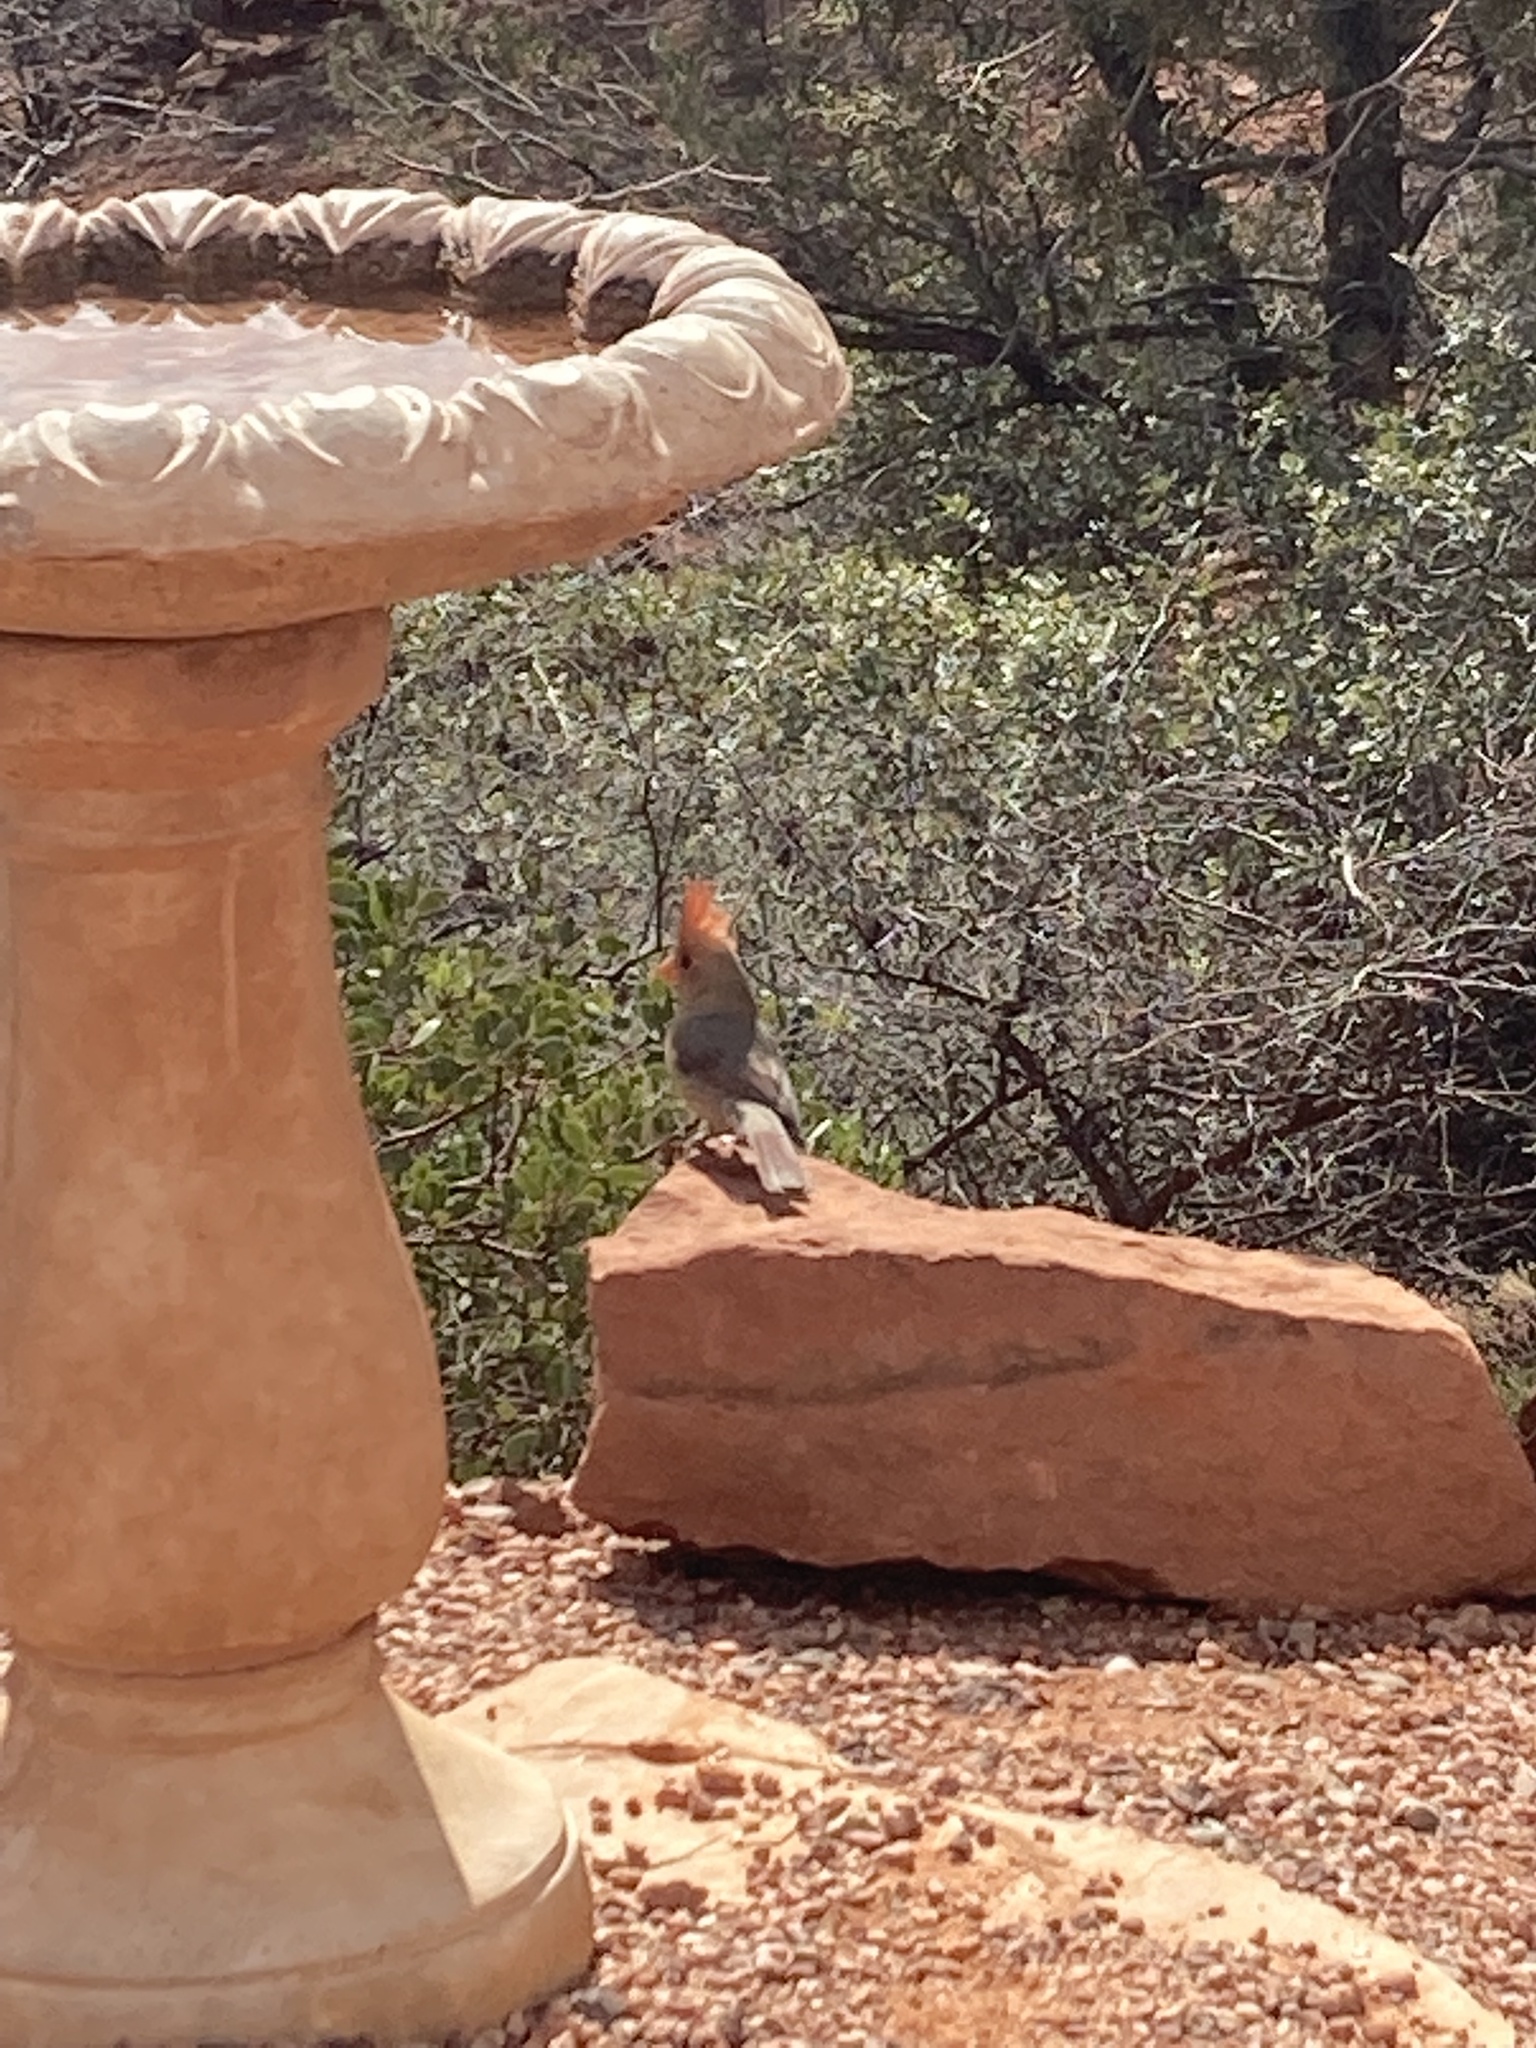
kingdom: Animalia
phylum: Chordata
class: Aves
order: Passeriformes
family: Cardinalidae
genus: Cardinalis
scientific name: Cardinalis cardinalis
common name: Northern cardinal
